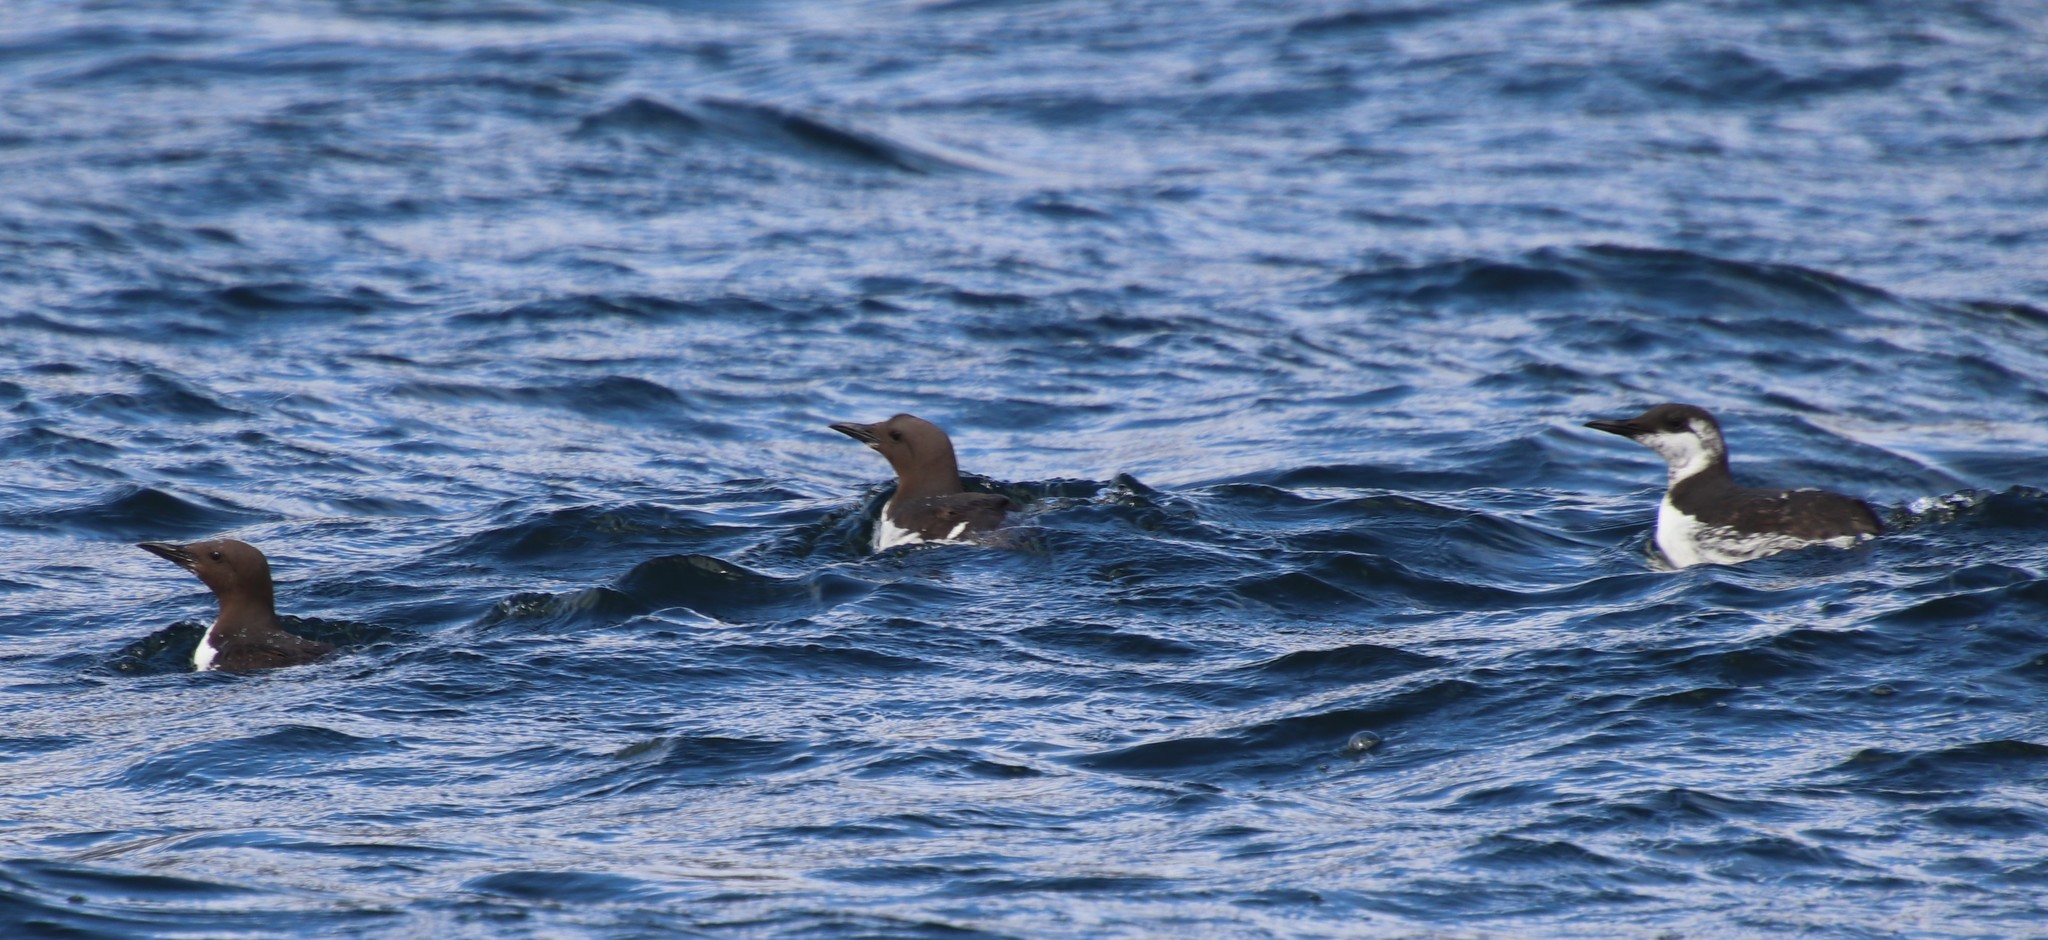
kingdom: Animalia
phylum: Chordata
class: Aves
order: Charadriiformes
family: Alcidae
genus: Uria
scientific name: Uria aalge
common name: Common murre
